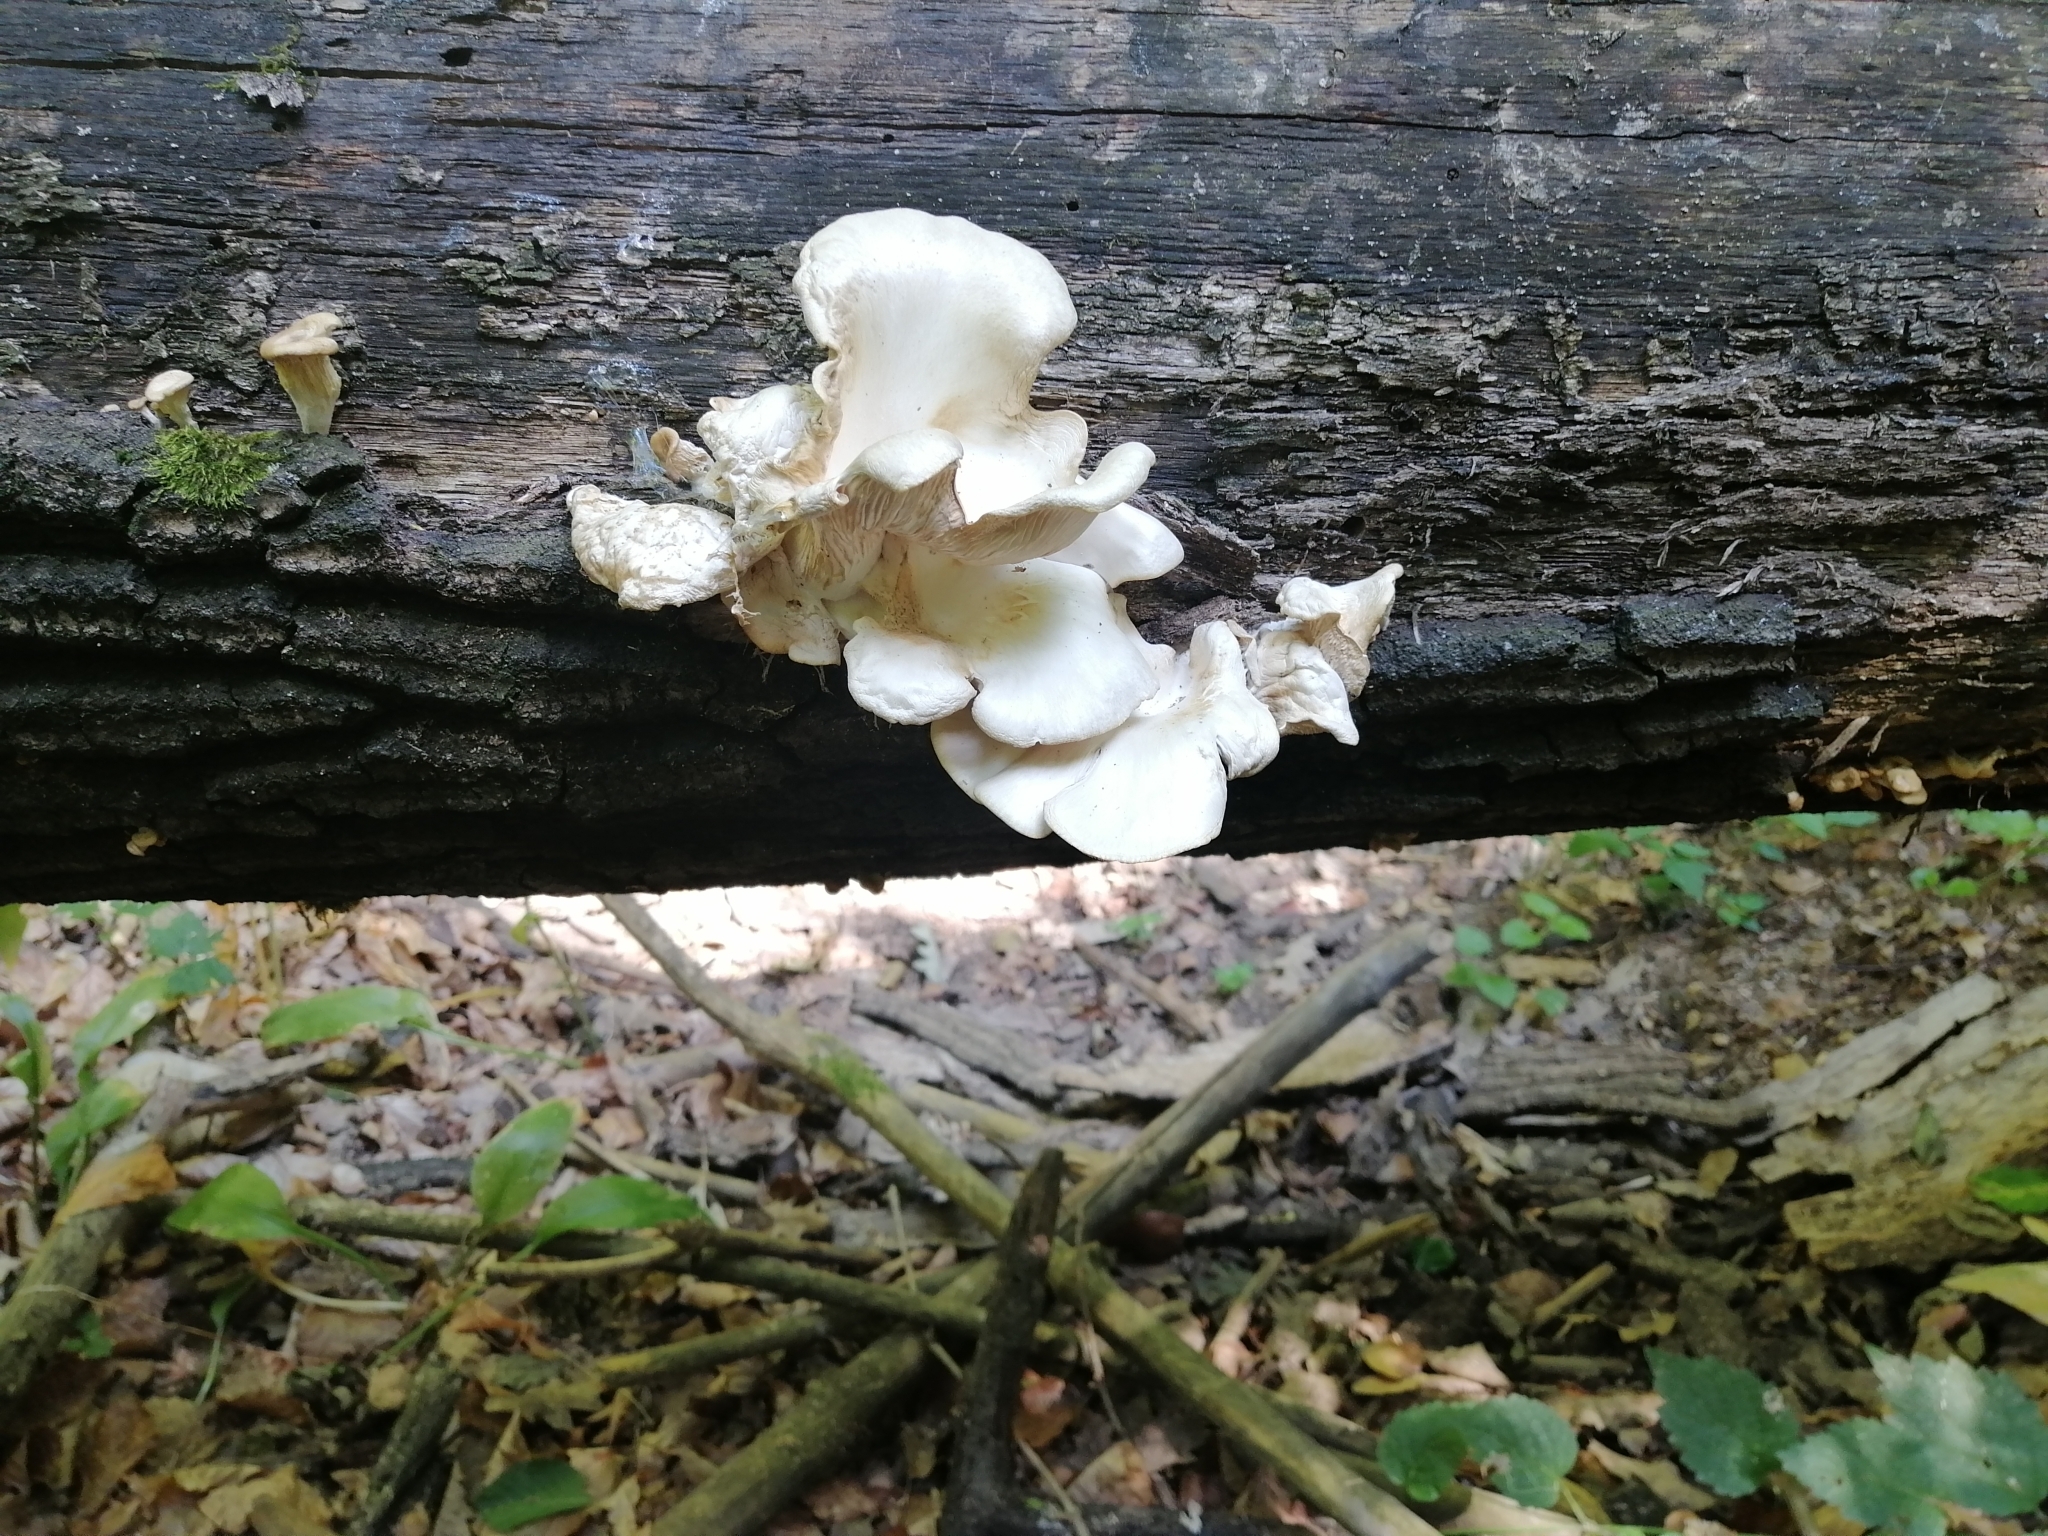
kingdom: Fungi
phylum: Basidiomycota
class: Agaricomycetes
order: Agaricales
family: Pleurotaceae
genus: Pleurotus
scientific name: Pleurotus pulmonarius
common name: Pale oyster
